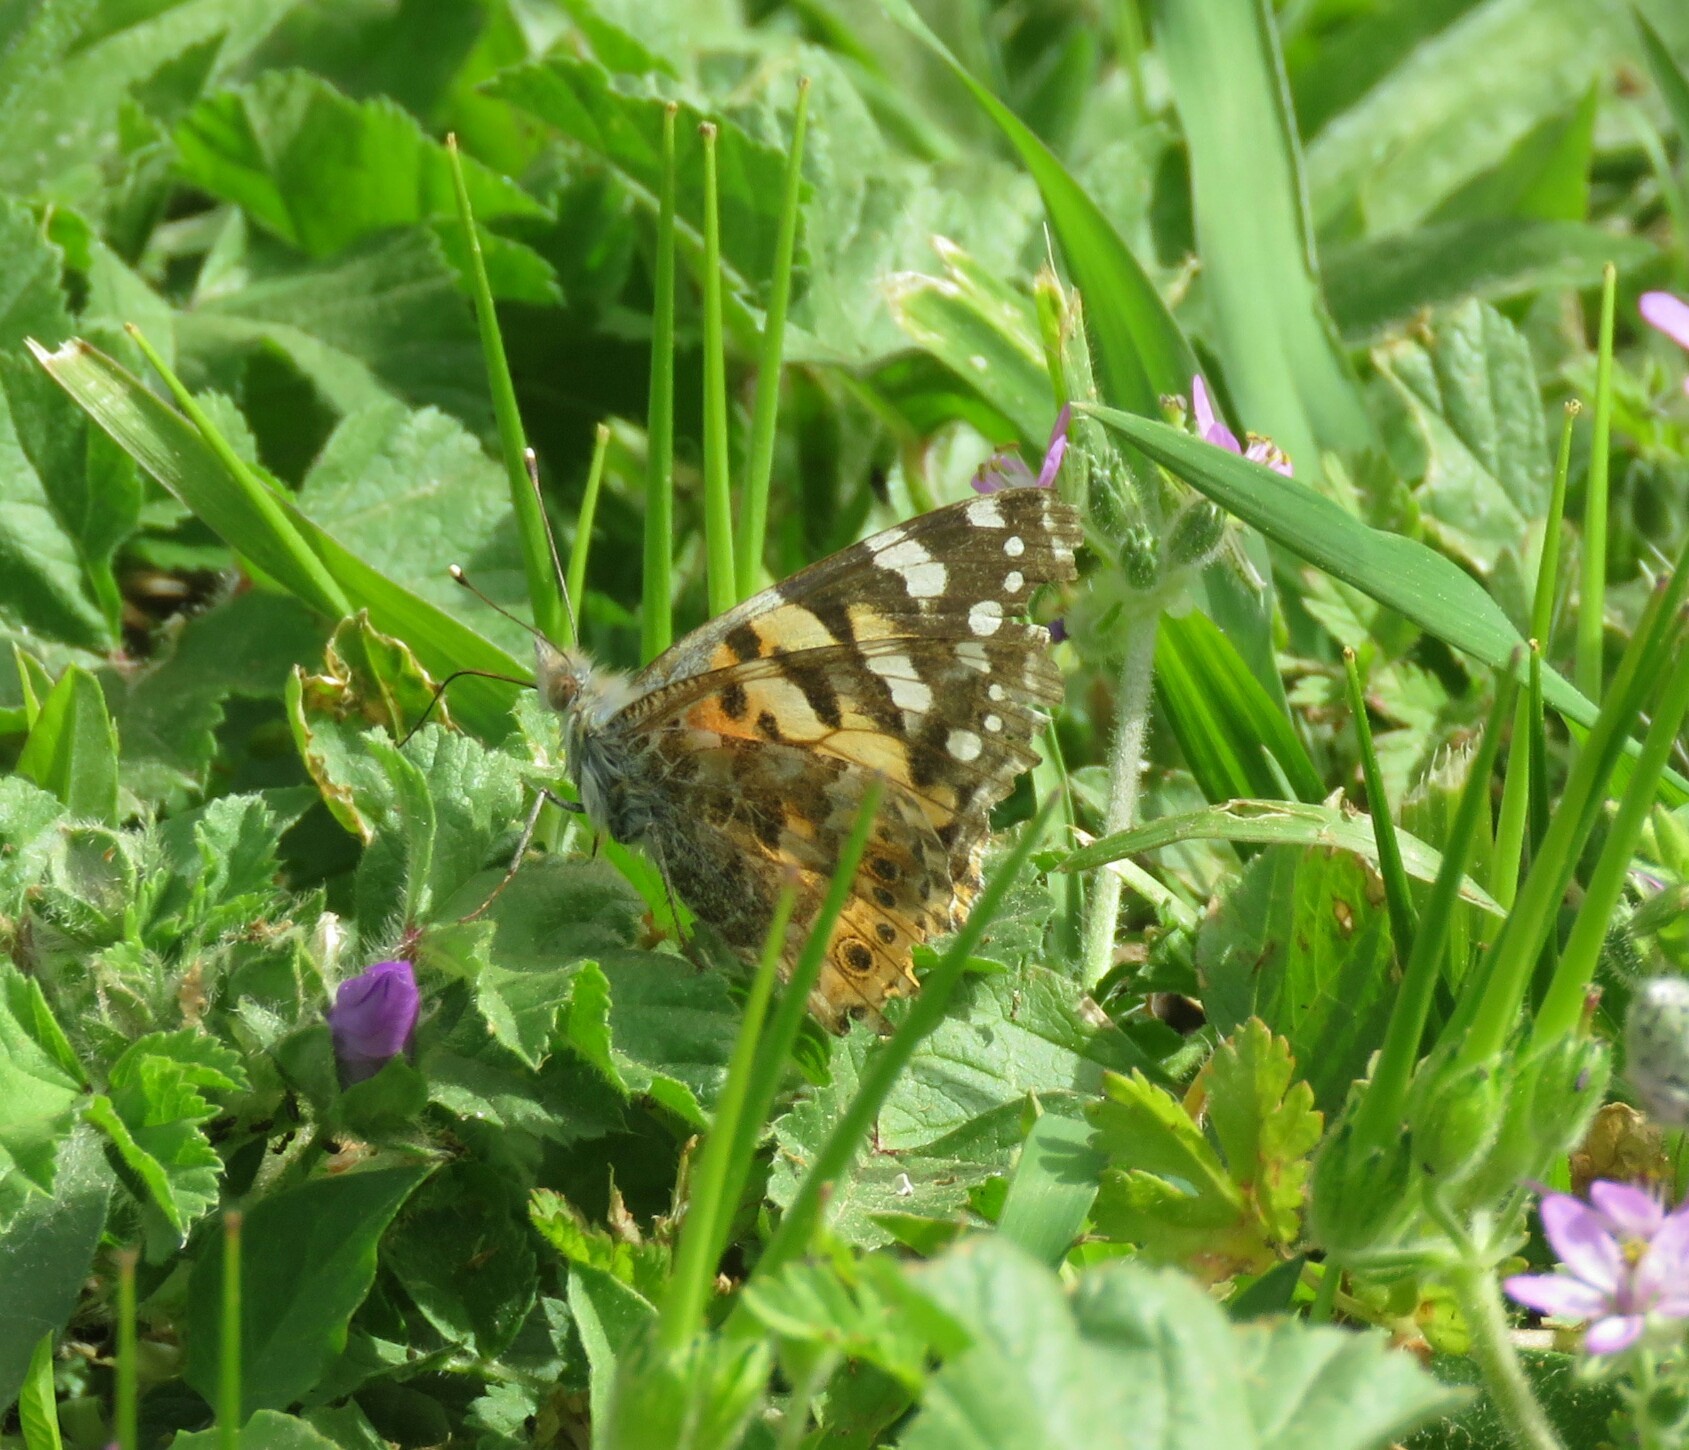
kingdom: Animalia
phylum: Arthropoda
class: Insecta
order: Lepidoptera
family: Nymphalidae
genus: Vanessa
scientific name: Vanessa cardui
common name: Painted lady
